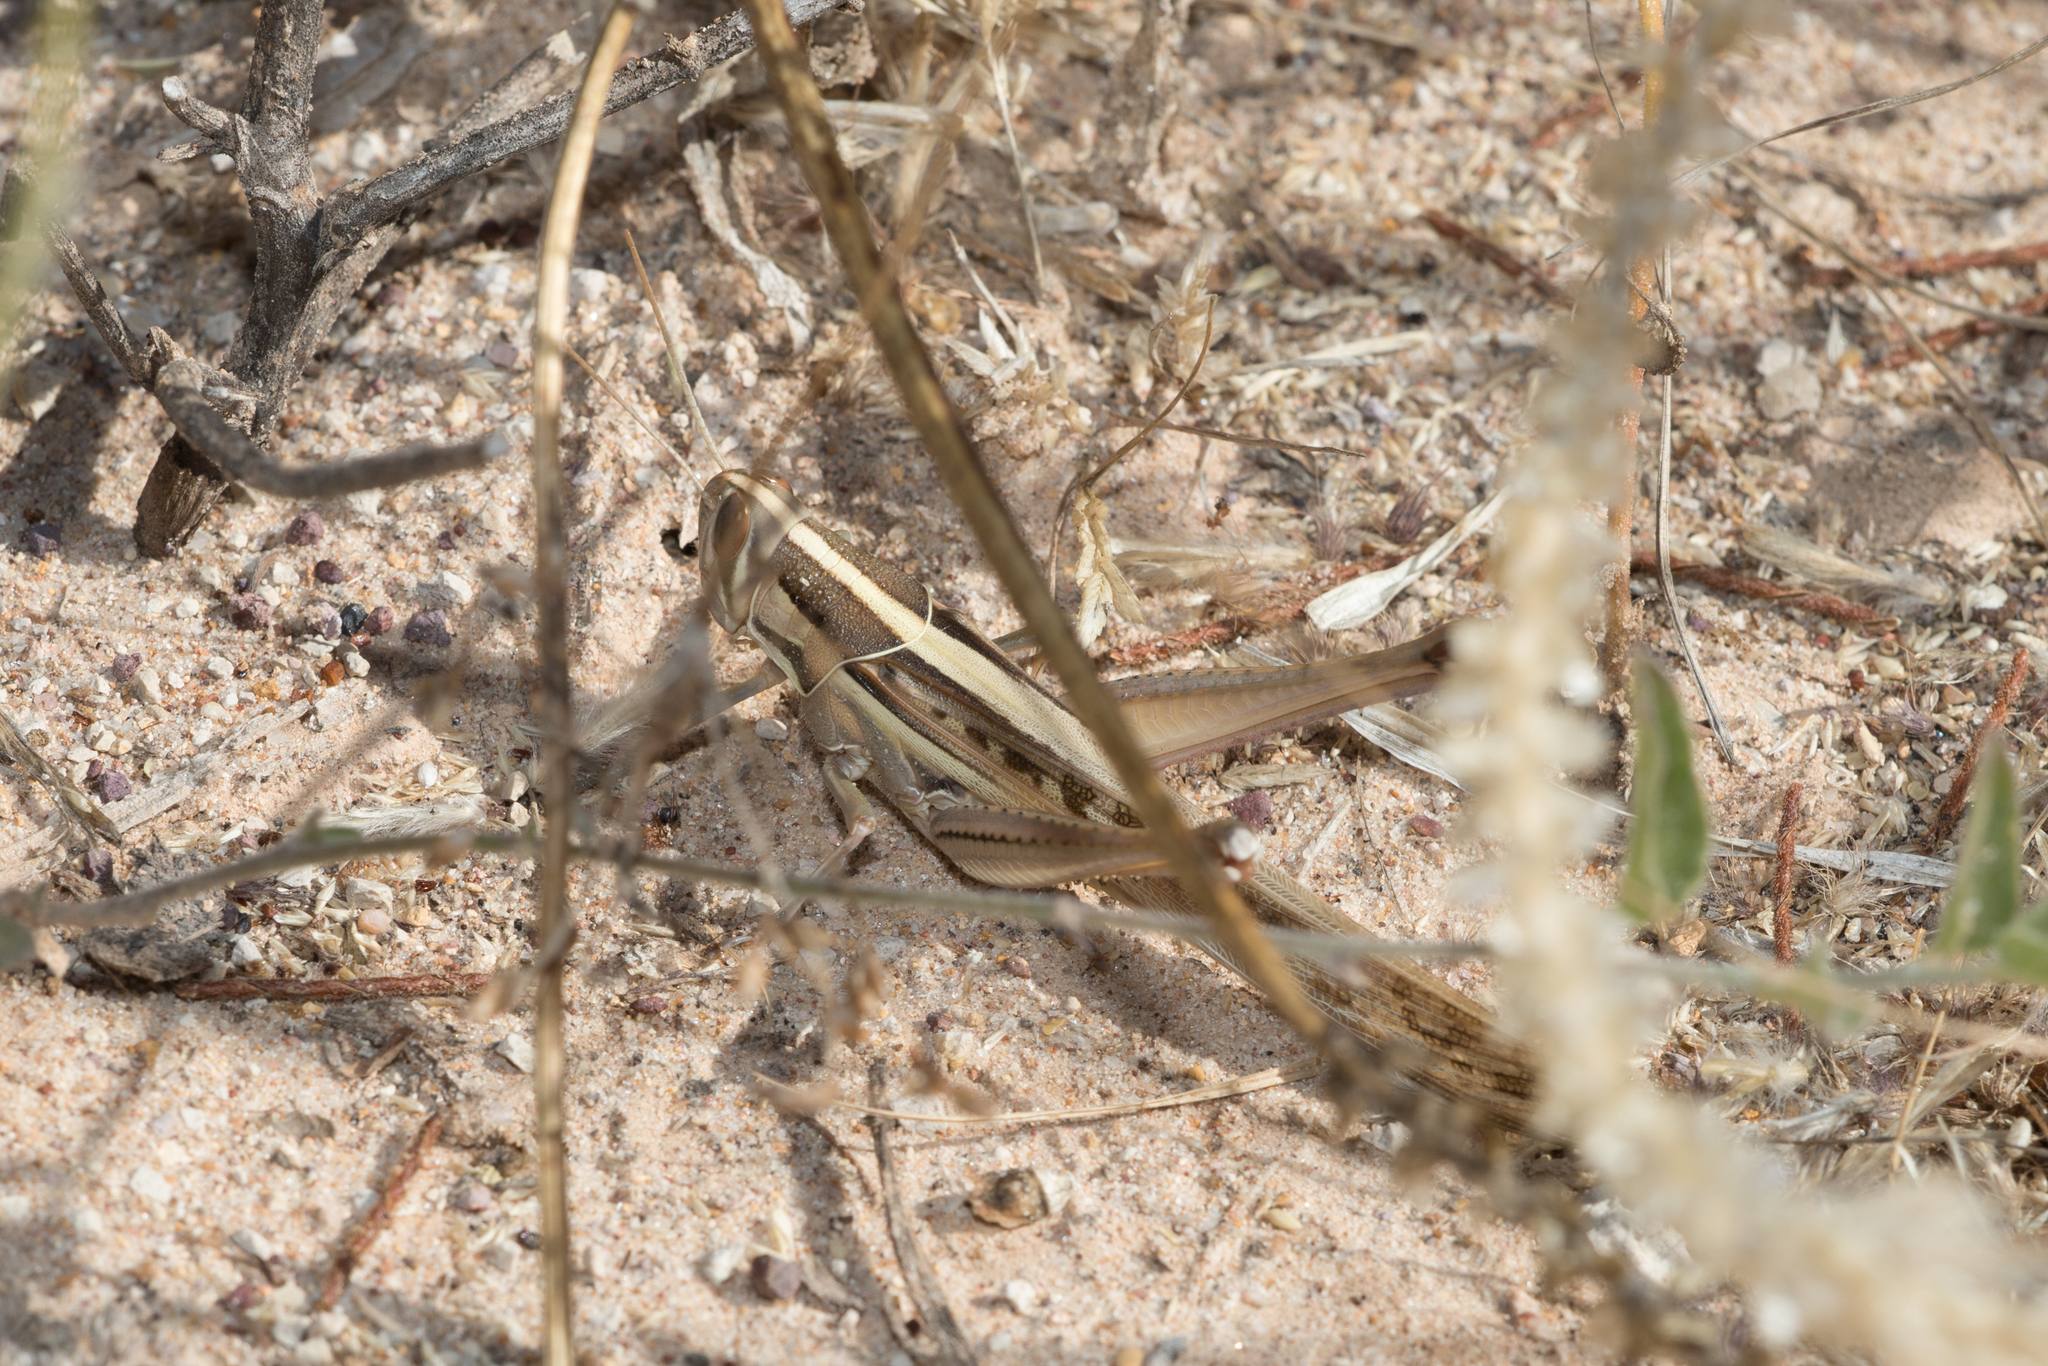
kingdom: Animalia
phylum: Arthropoda
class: Insecta
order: Orthoptera
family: Acrididae
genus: Austracris
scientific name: Austracris guttulosa
